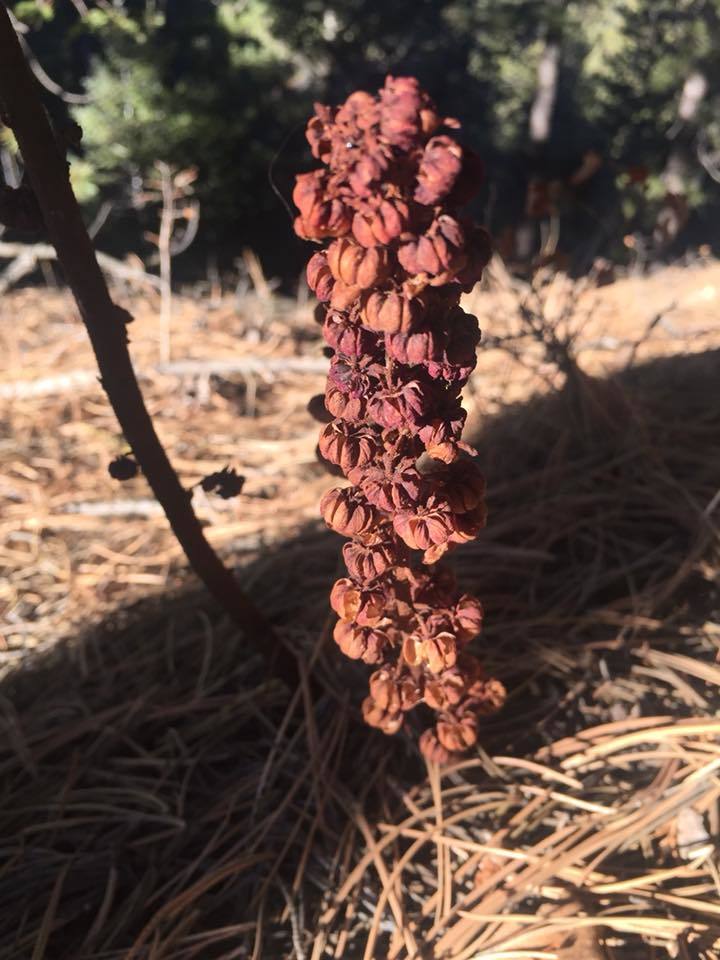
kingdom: Plantae
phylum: Tracheophyta
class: Magnoliopsida
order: Ericales
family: Ericaceae
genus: Pterospora
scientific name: Pterospora andromedea
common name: Giant bird's-nest
